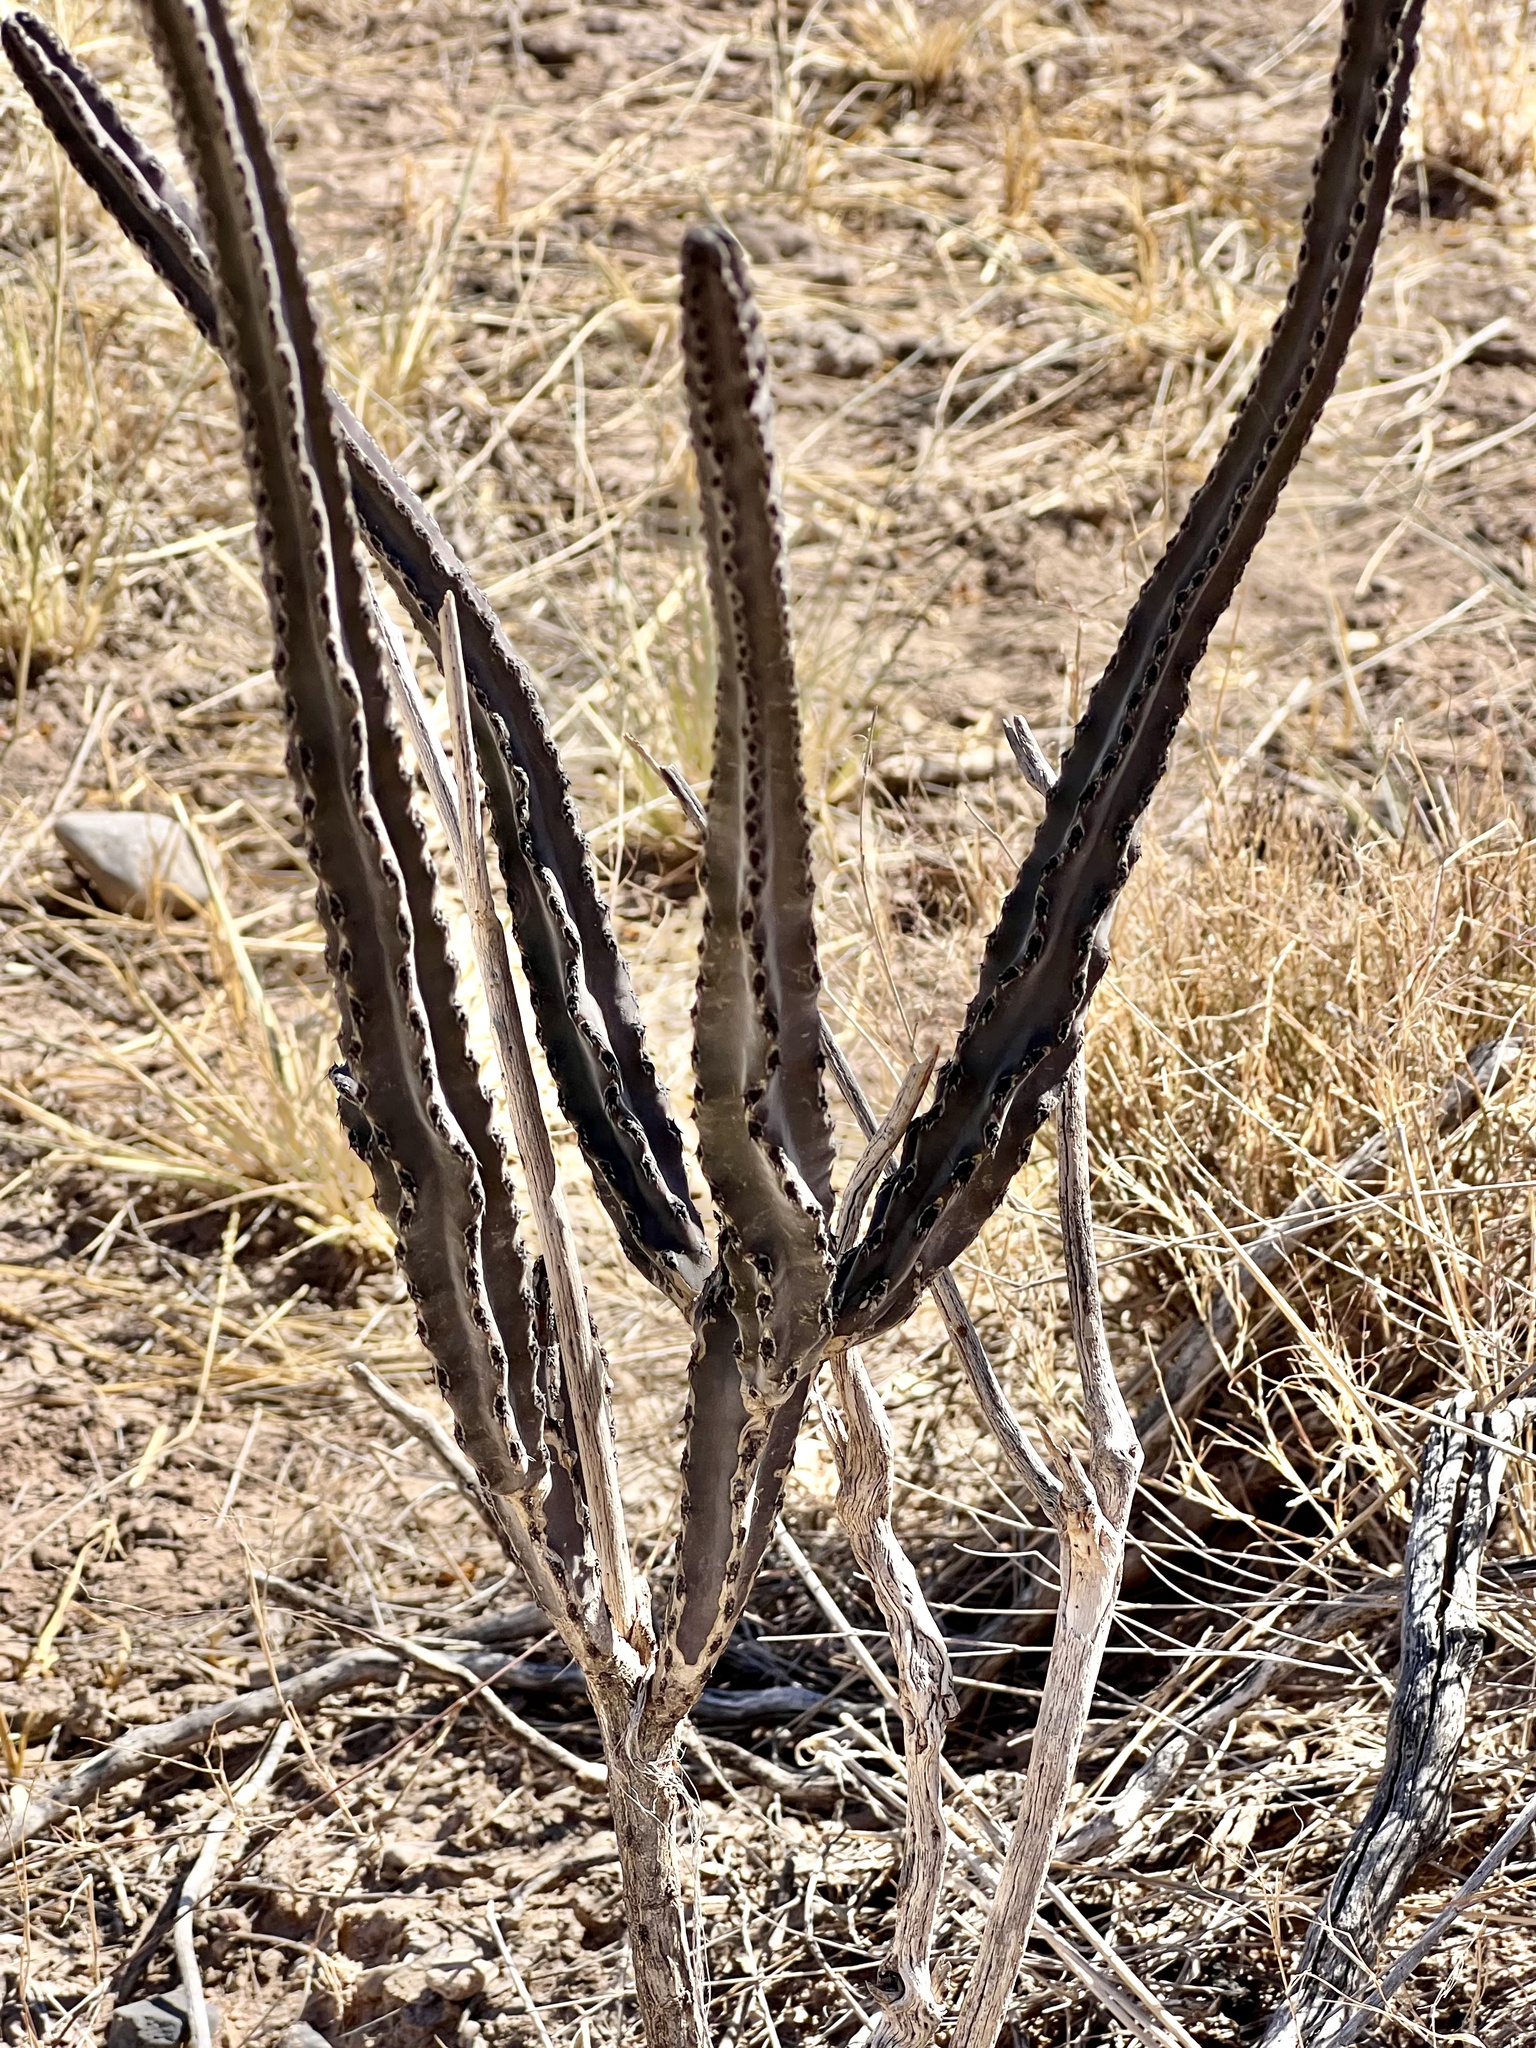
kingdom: Plantae
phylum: Tracheophyta
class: Magnoliopsida
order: Caryophyllales
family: Cactaceae
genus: Peniocereus
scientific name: Peniocereus greggii
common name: Desert night-blooming cereus
